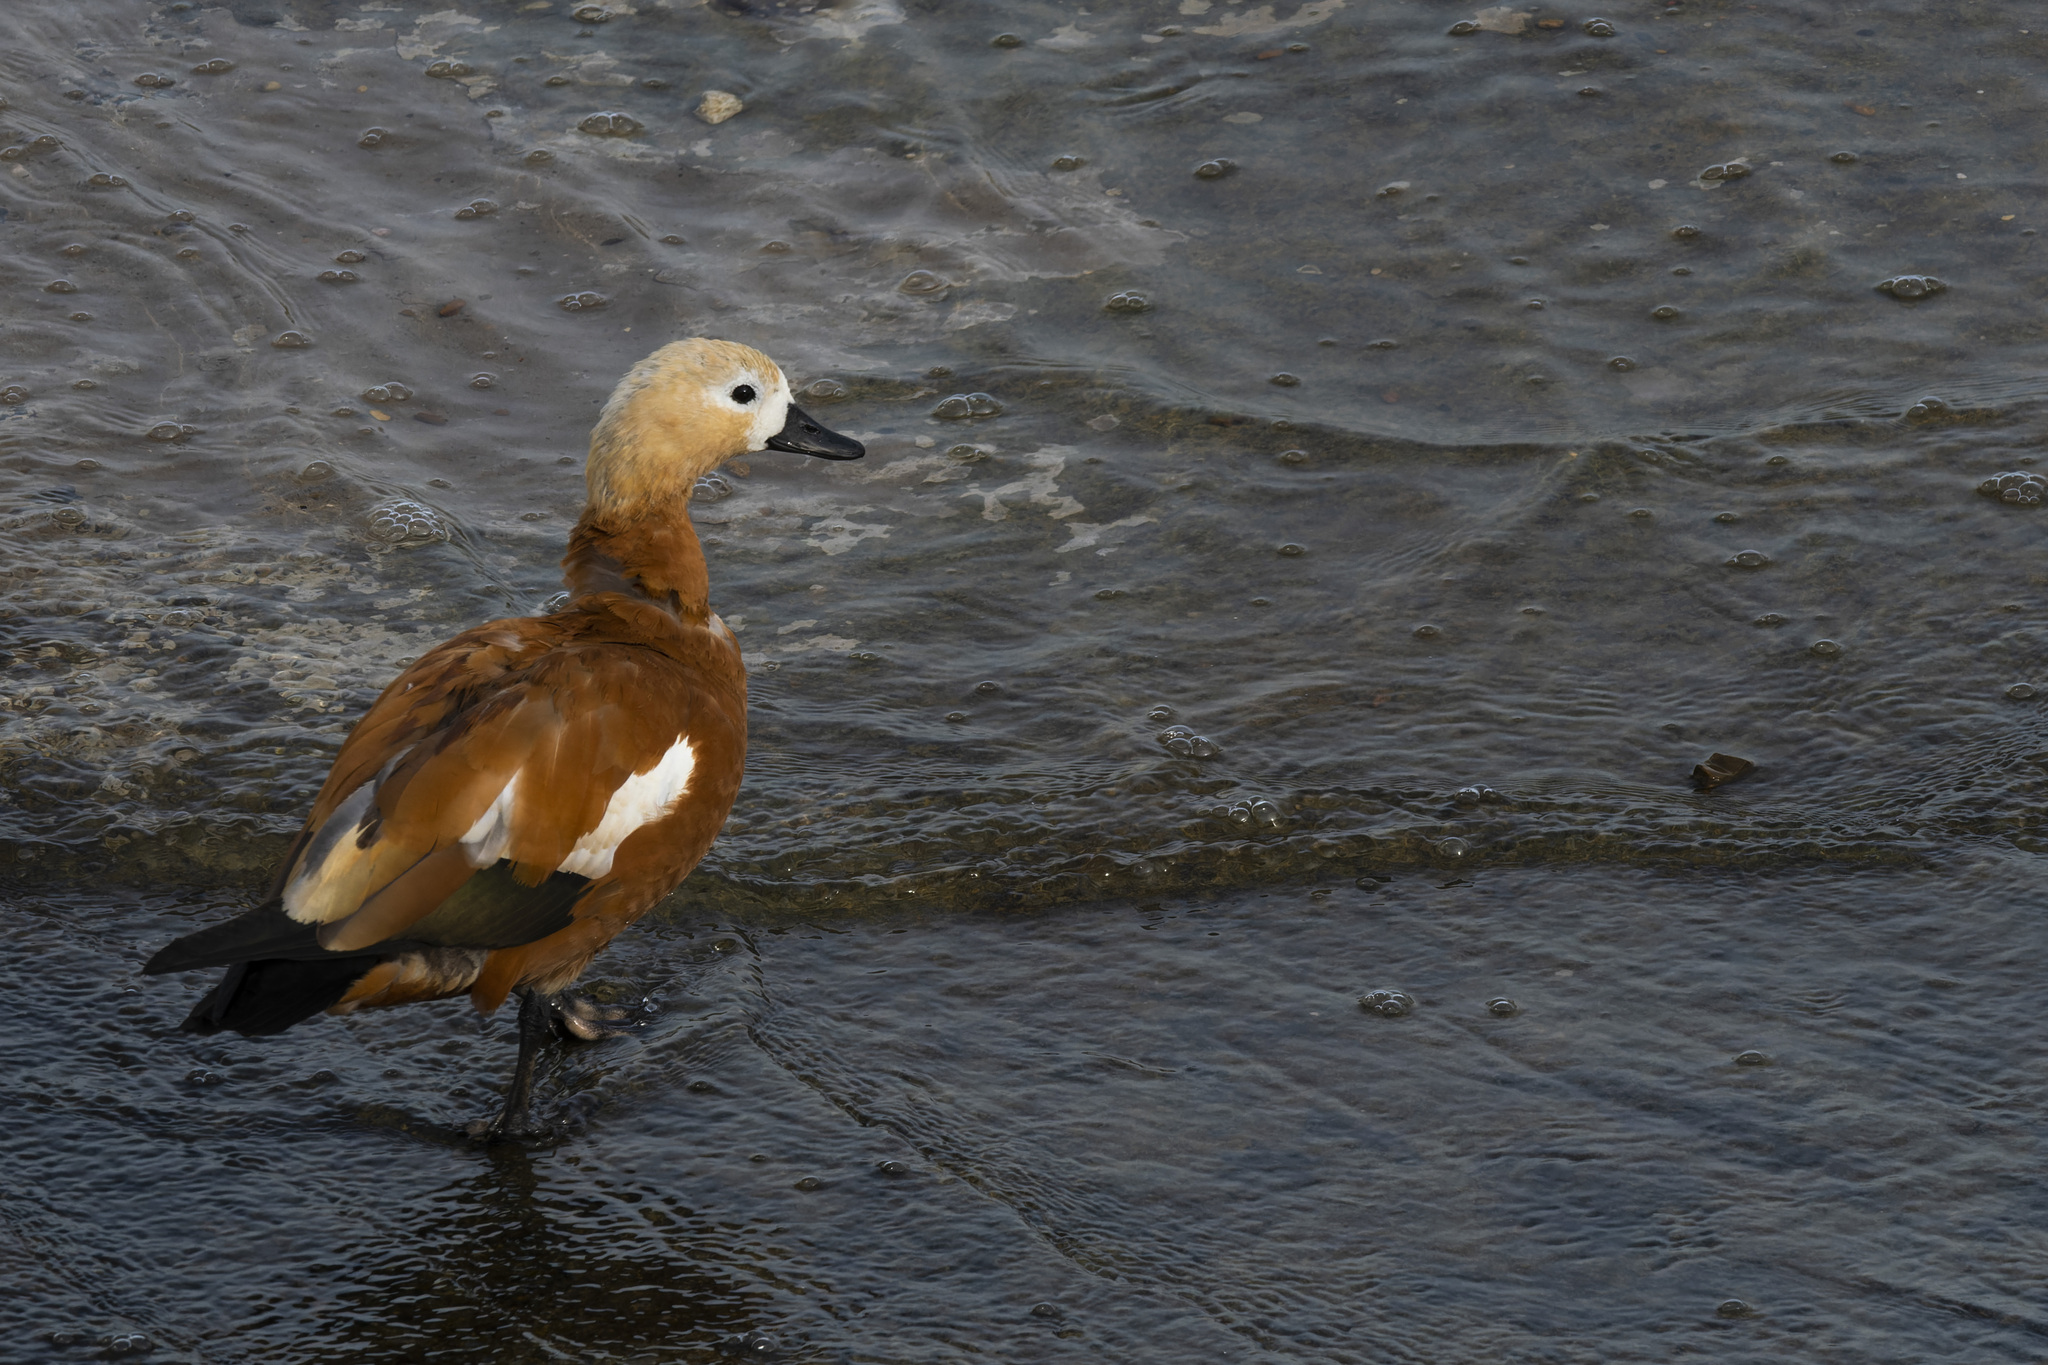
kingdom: Animalia
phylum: Chordata
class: Aves
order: Anseriformes
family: Anatidae
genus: Tadorna
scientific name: Tadorna ferruginea
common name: Ruddy shelduck
